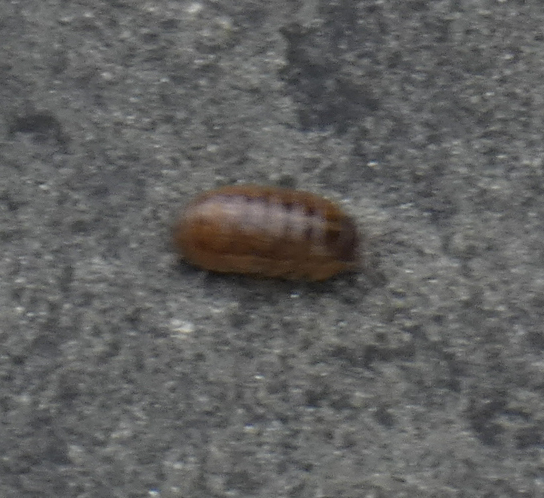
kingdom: Animalia
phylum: Arthropoda
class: Malacostraca
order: Isopoda
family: Armadillidiidae
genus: Armadillidium
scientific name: Armadillidium vulgare
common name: Common pill woodlouse
